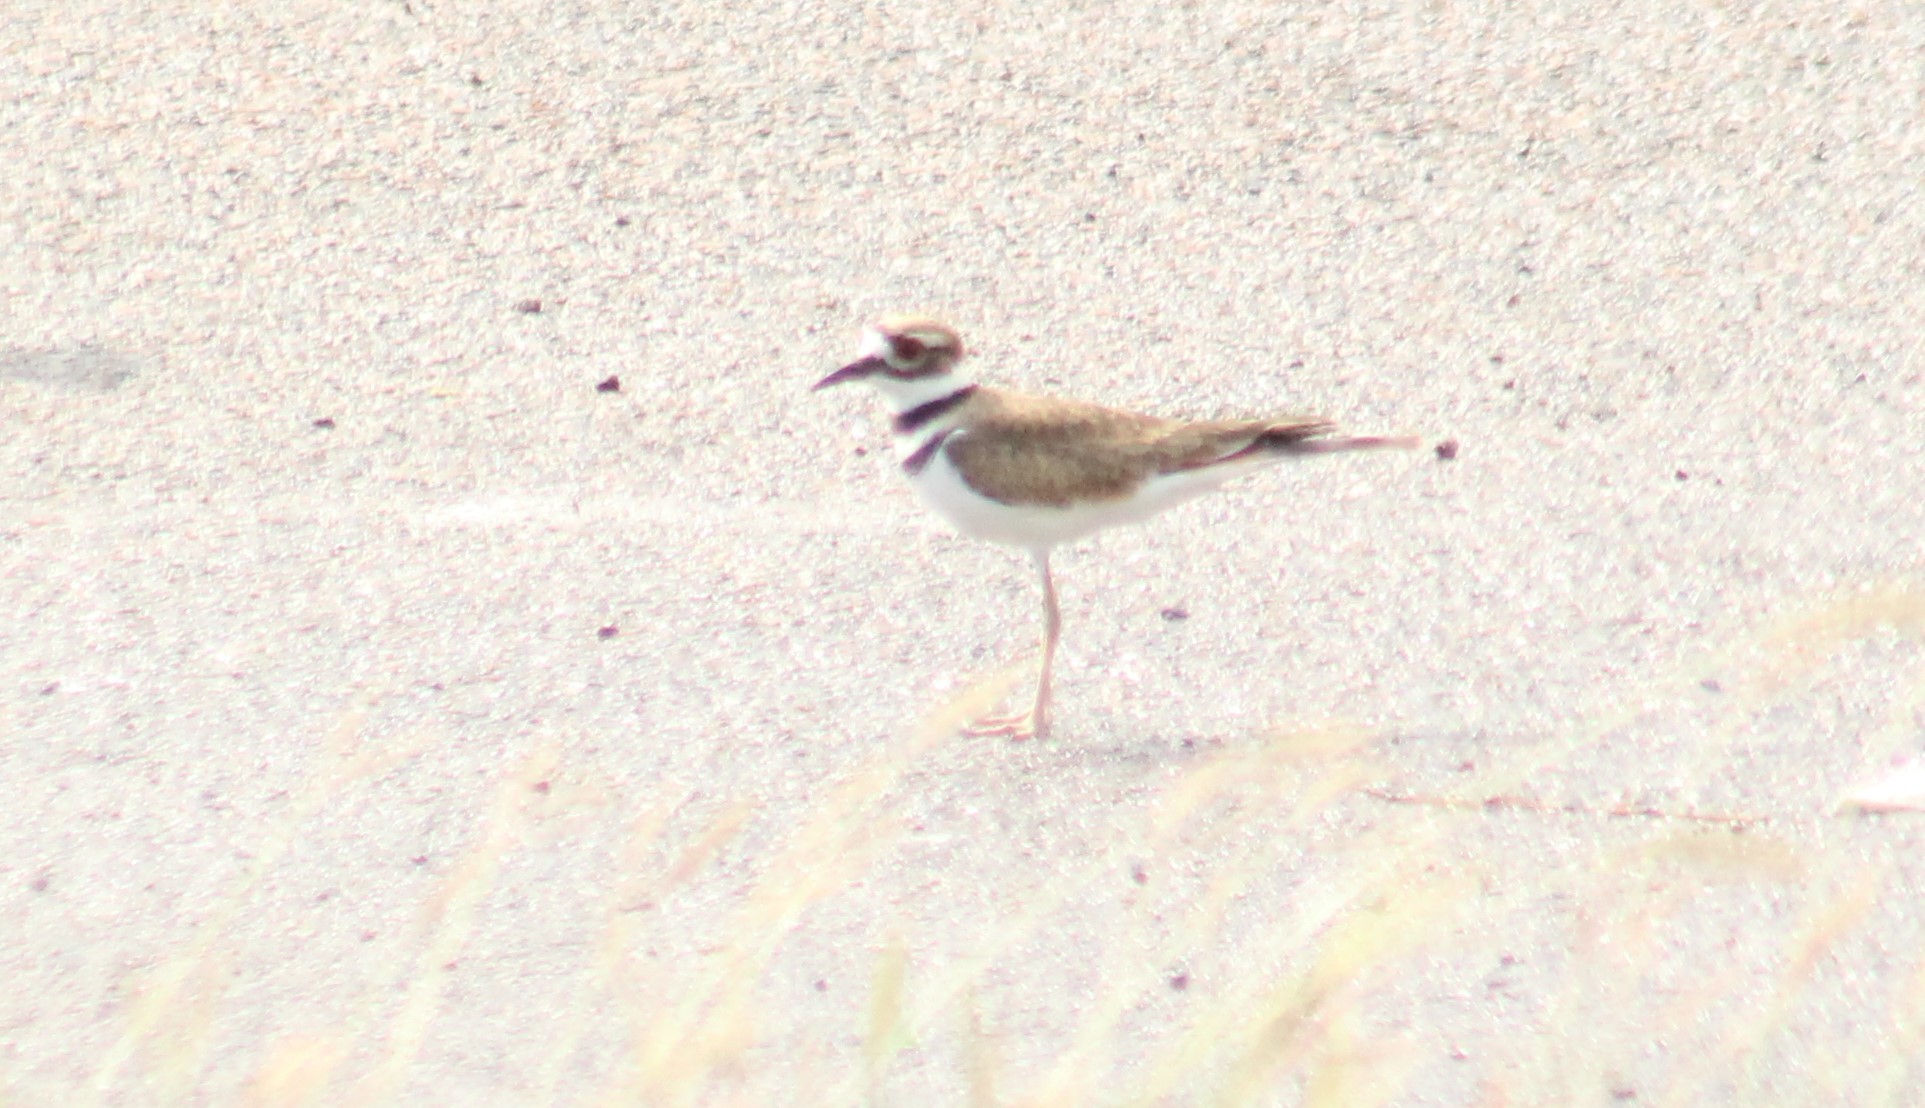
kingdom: Animalia
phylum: Chordata
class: Aves
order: Charadriiformes
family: Charadriidae
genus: Charadrius
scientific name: Charadrius vociferus
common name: Killdeer
